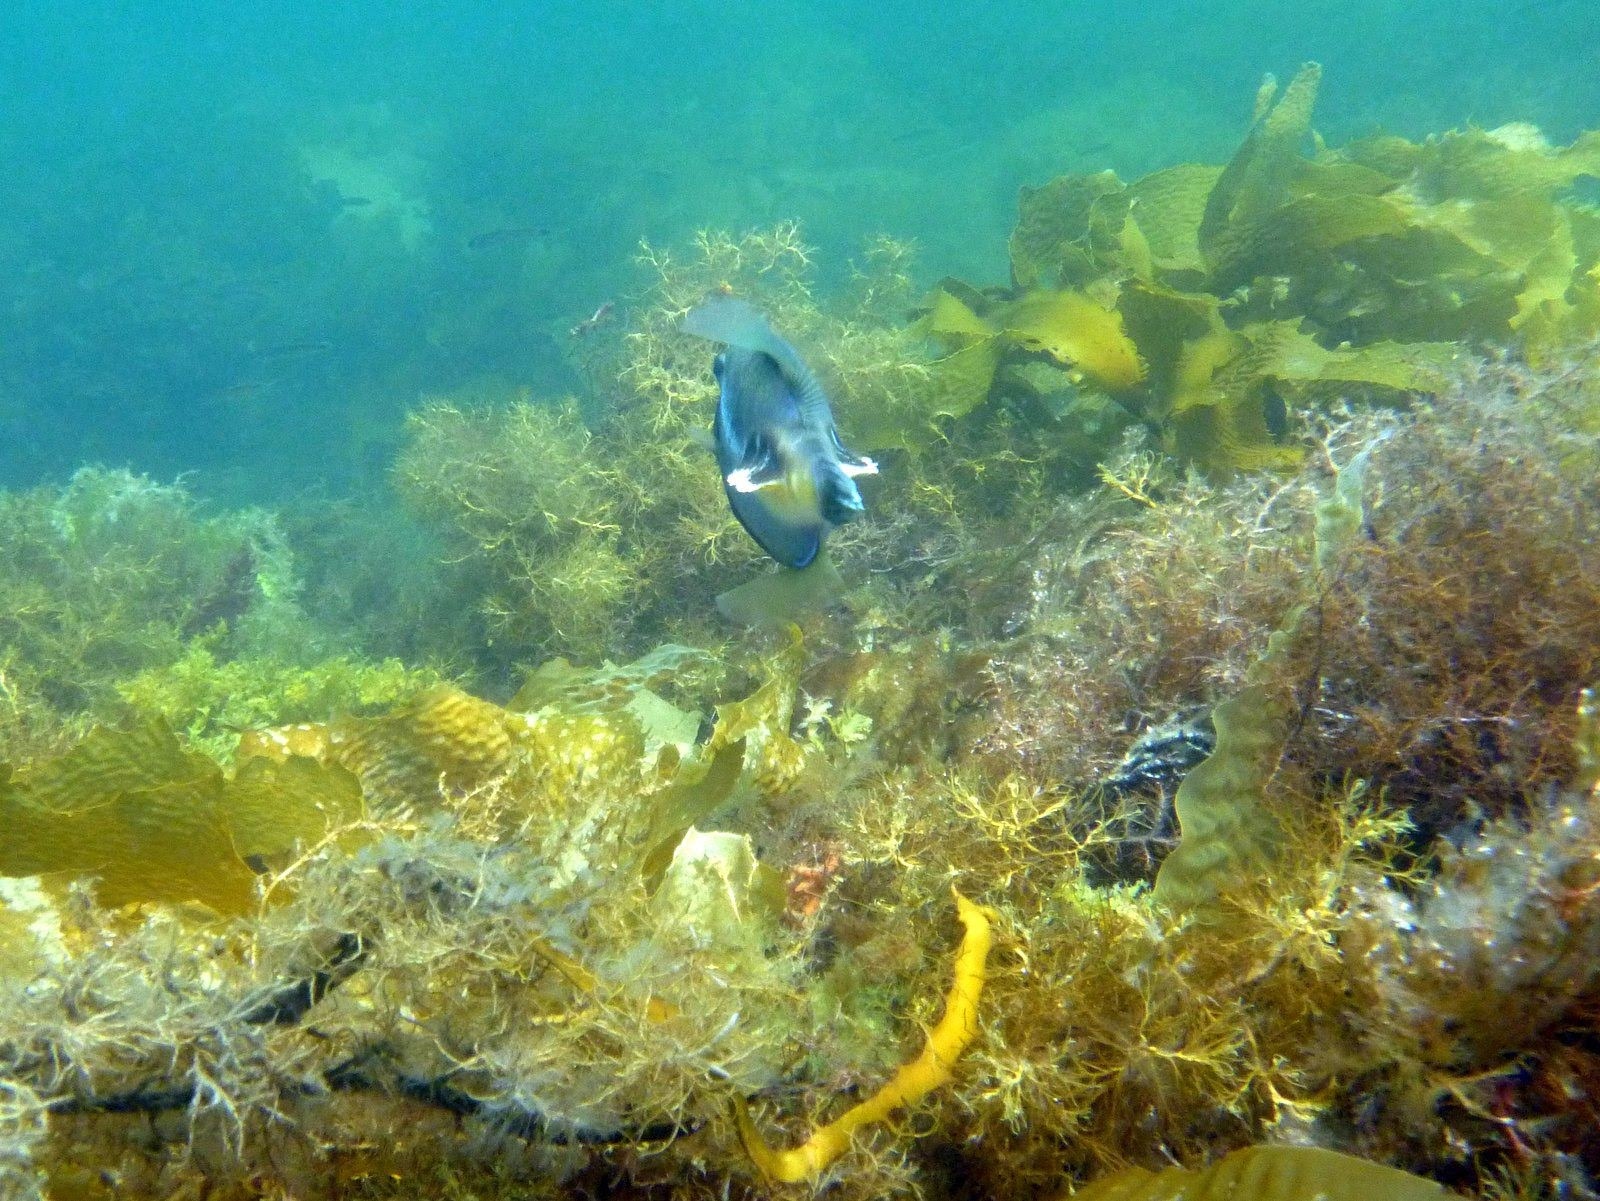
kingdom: Animalia
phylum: Chordata
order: Tetraodontiformes
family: Monacanthidae
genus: Acanthaluteres
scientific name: Acanthaluteres vittiger
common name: Brown leatherjacket
